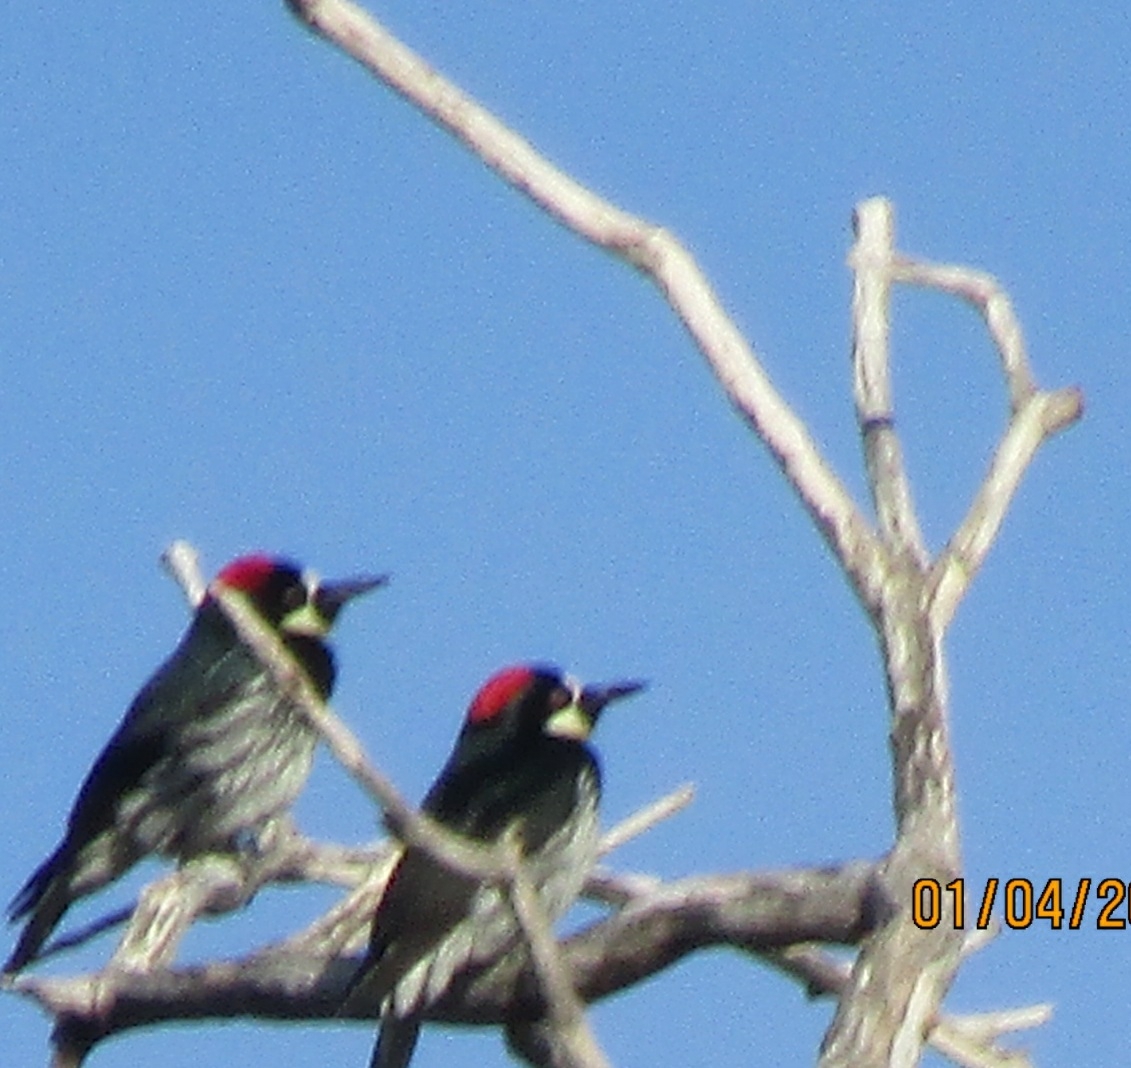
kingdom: Animalia
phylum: Chordata
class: Aves
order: Piciformes
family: Picidae
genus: Melanerpes
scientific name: Melanerpes formicivorus
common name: Acorn woodpecker
